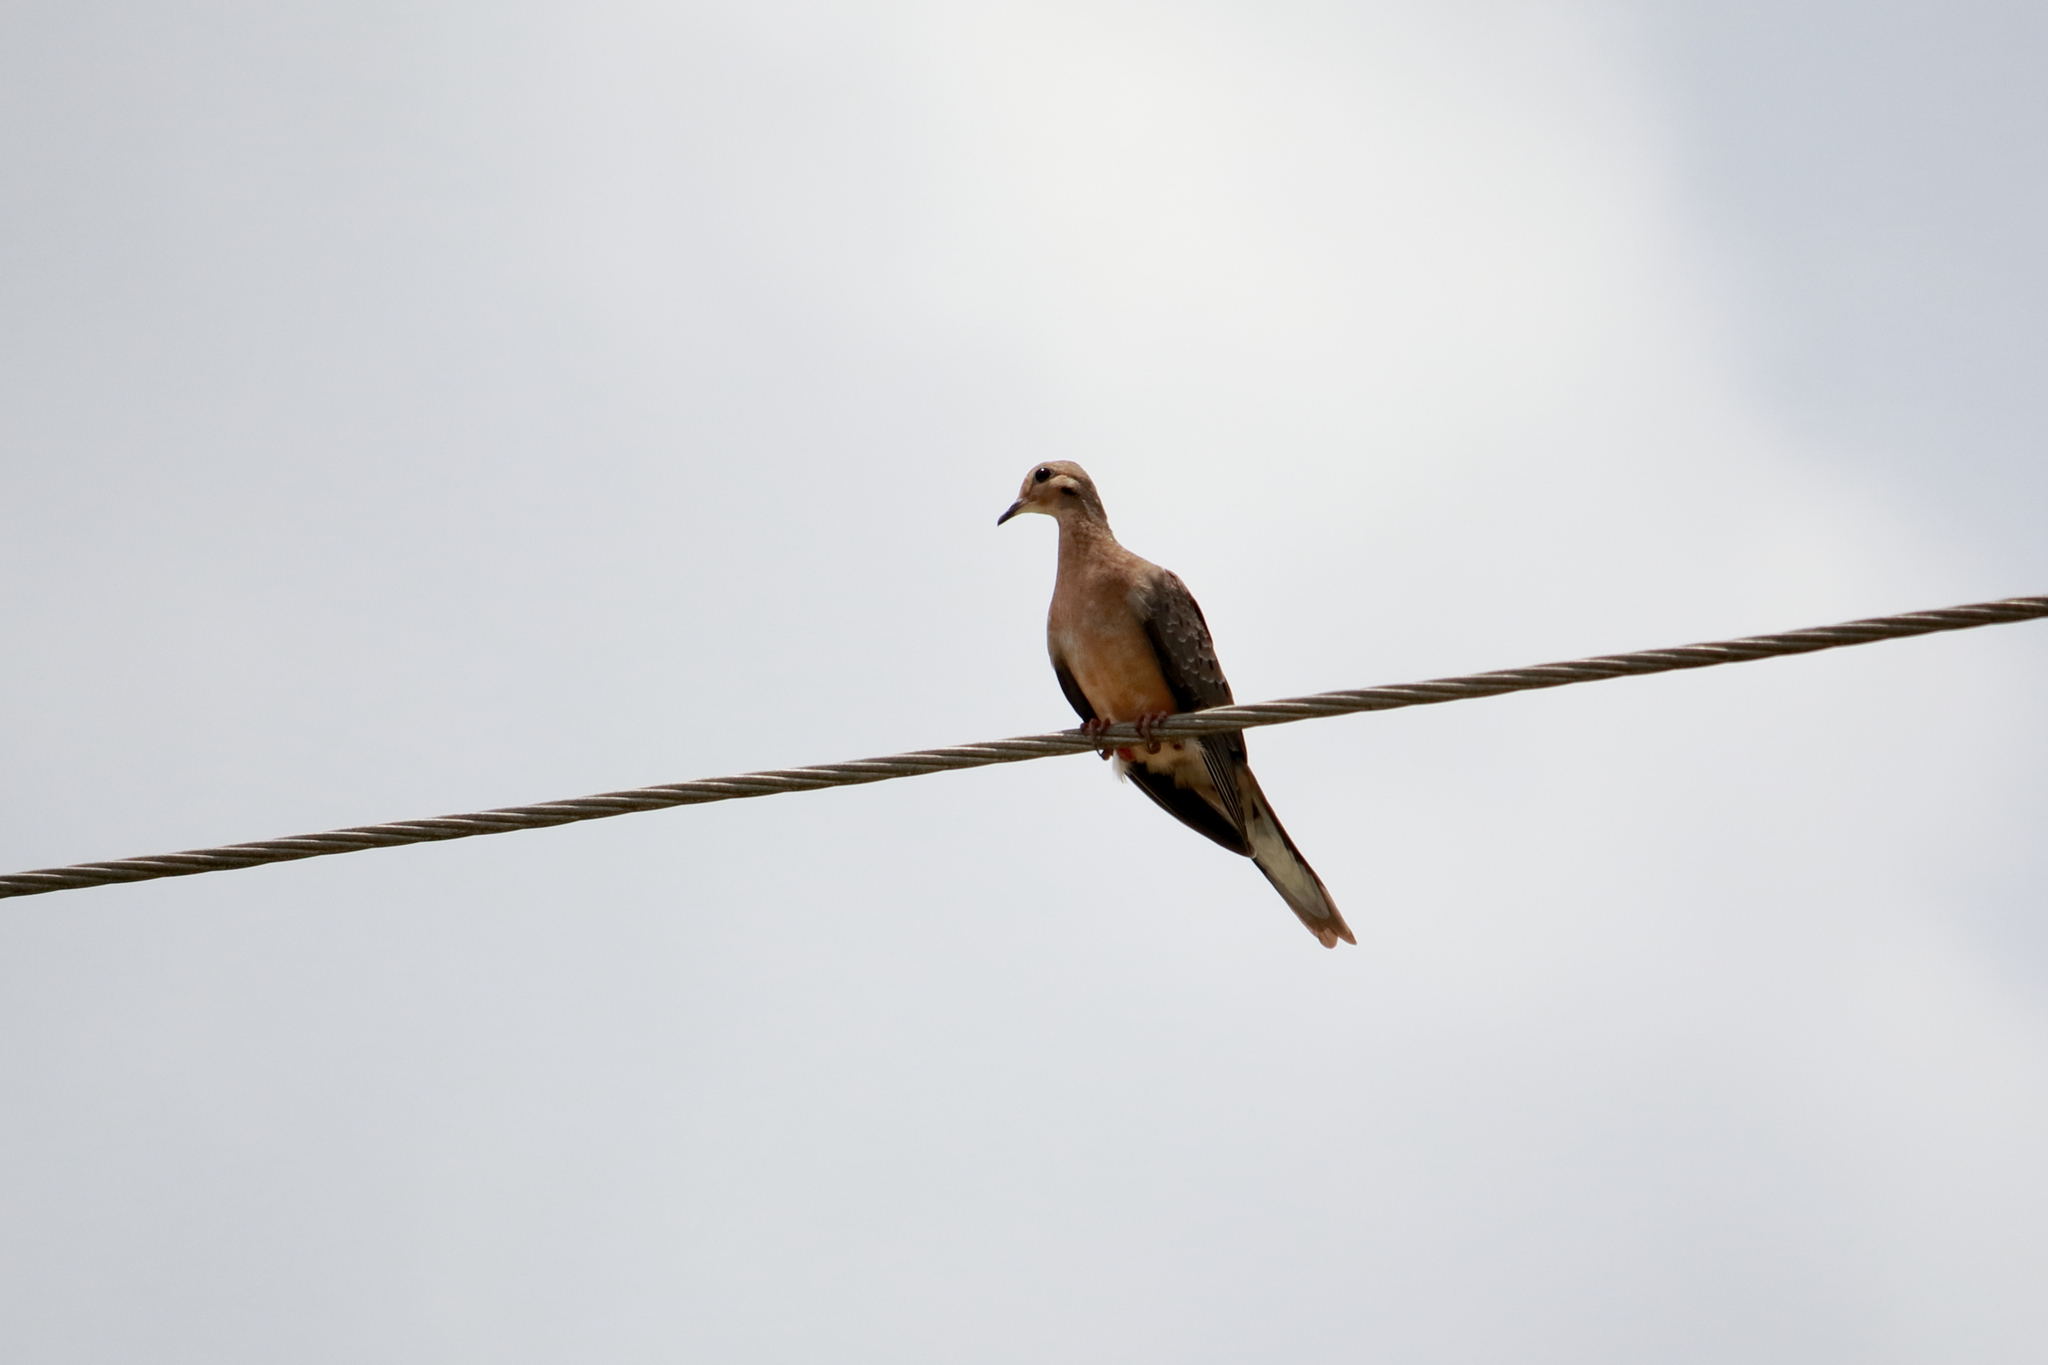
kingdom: Animalia
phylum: Chordata
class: Aves
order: Columbiformes
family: Columbidae
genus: Zenaida
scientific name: Zenaida macroura
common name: Mourning dove
